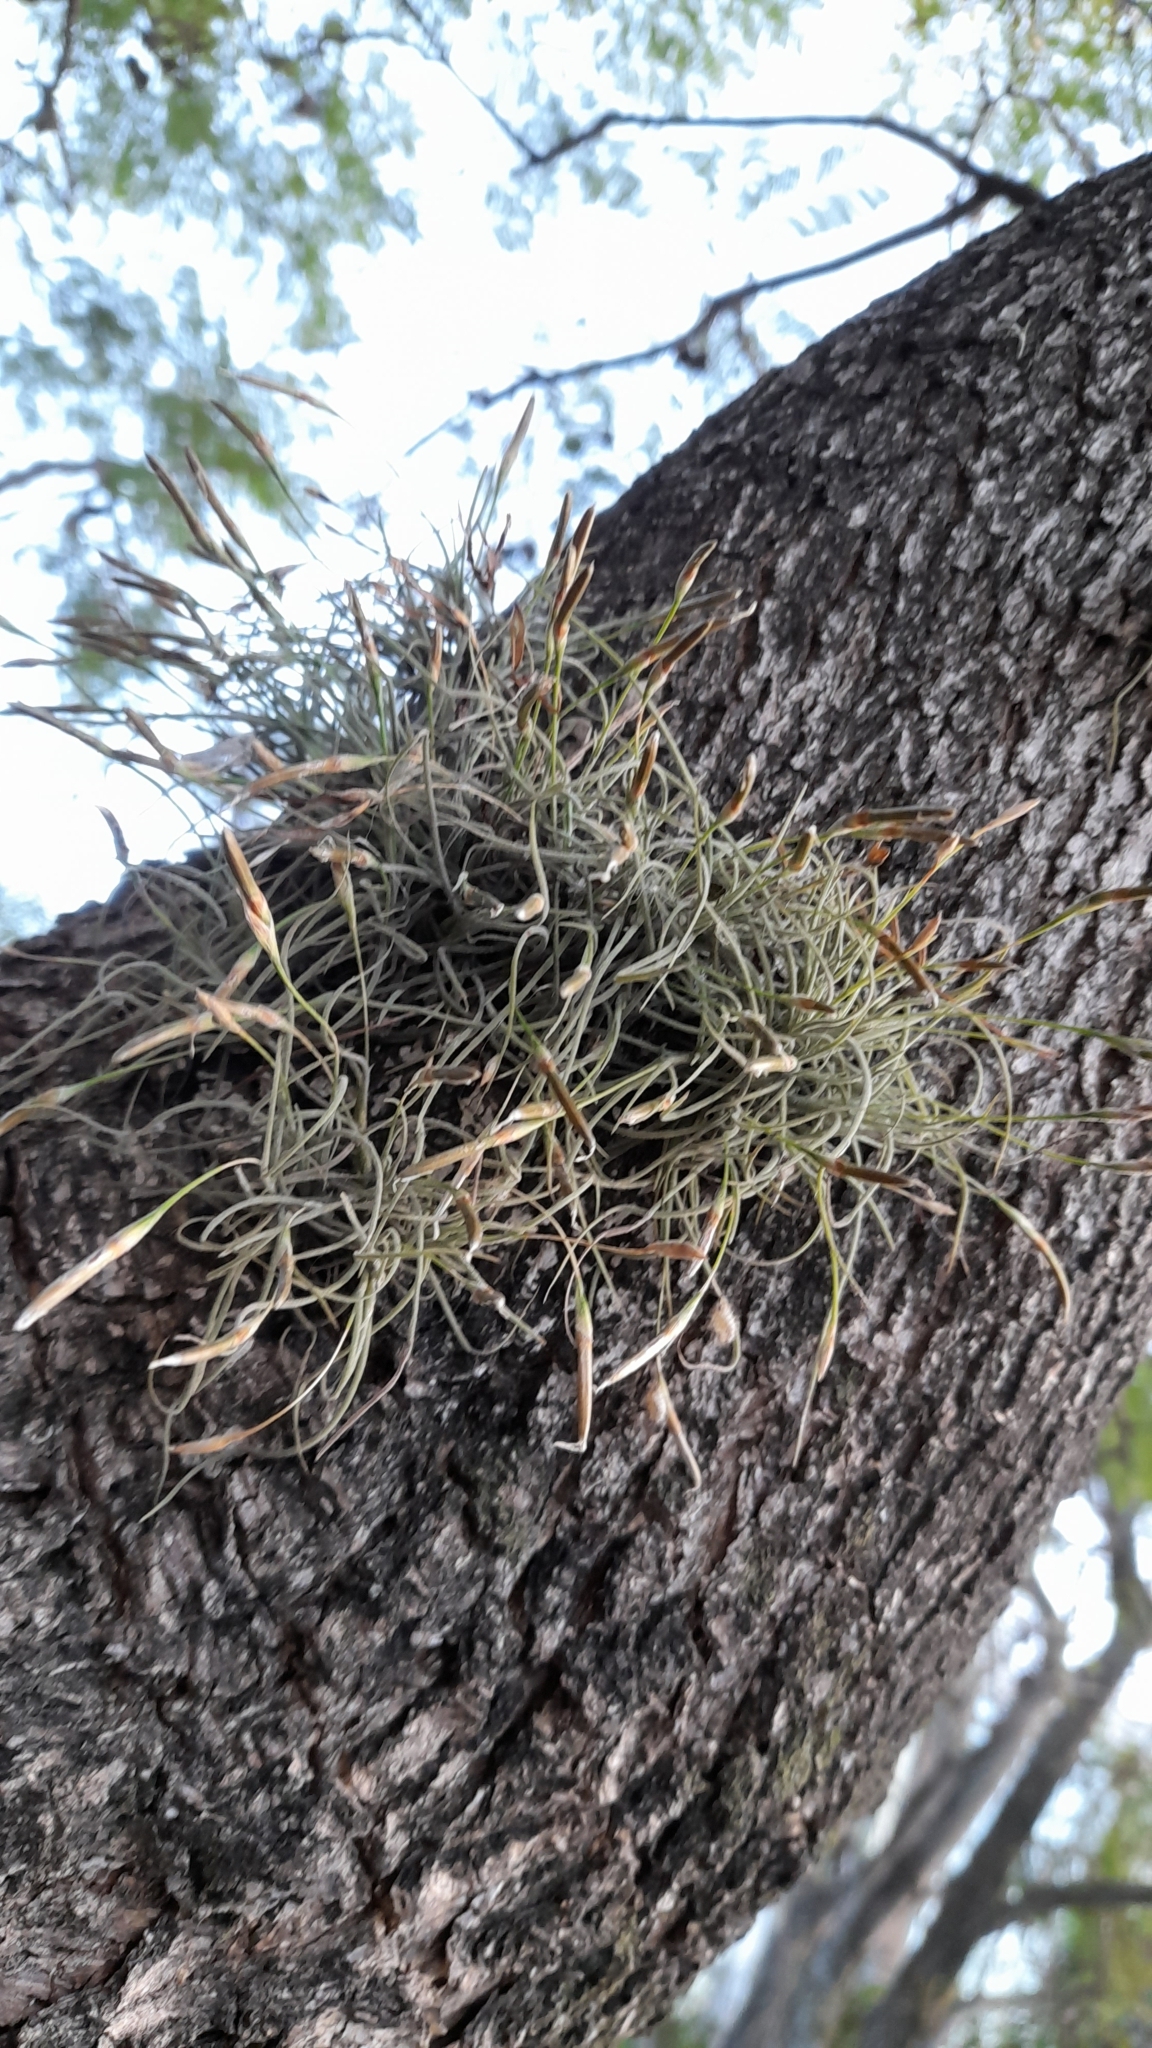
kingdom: Plantae
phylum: Tracheophyta
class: Liliopsida
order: Poales
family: Bromeliaceae
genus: Tillandsia
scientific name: Tillandsia recurvata
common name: Small ballmoss
